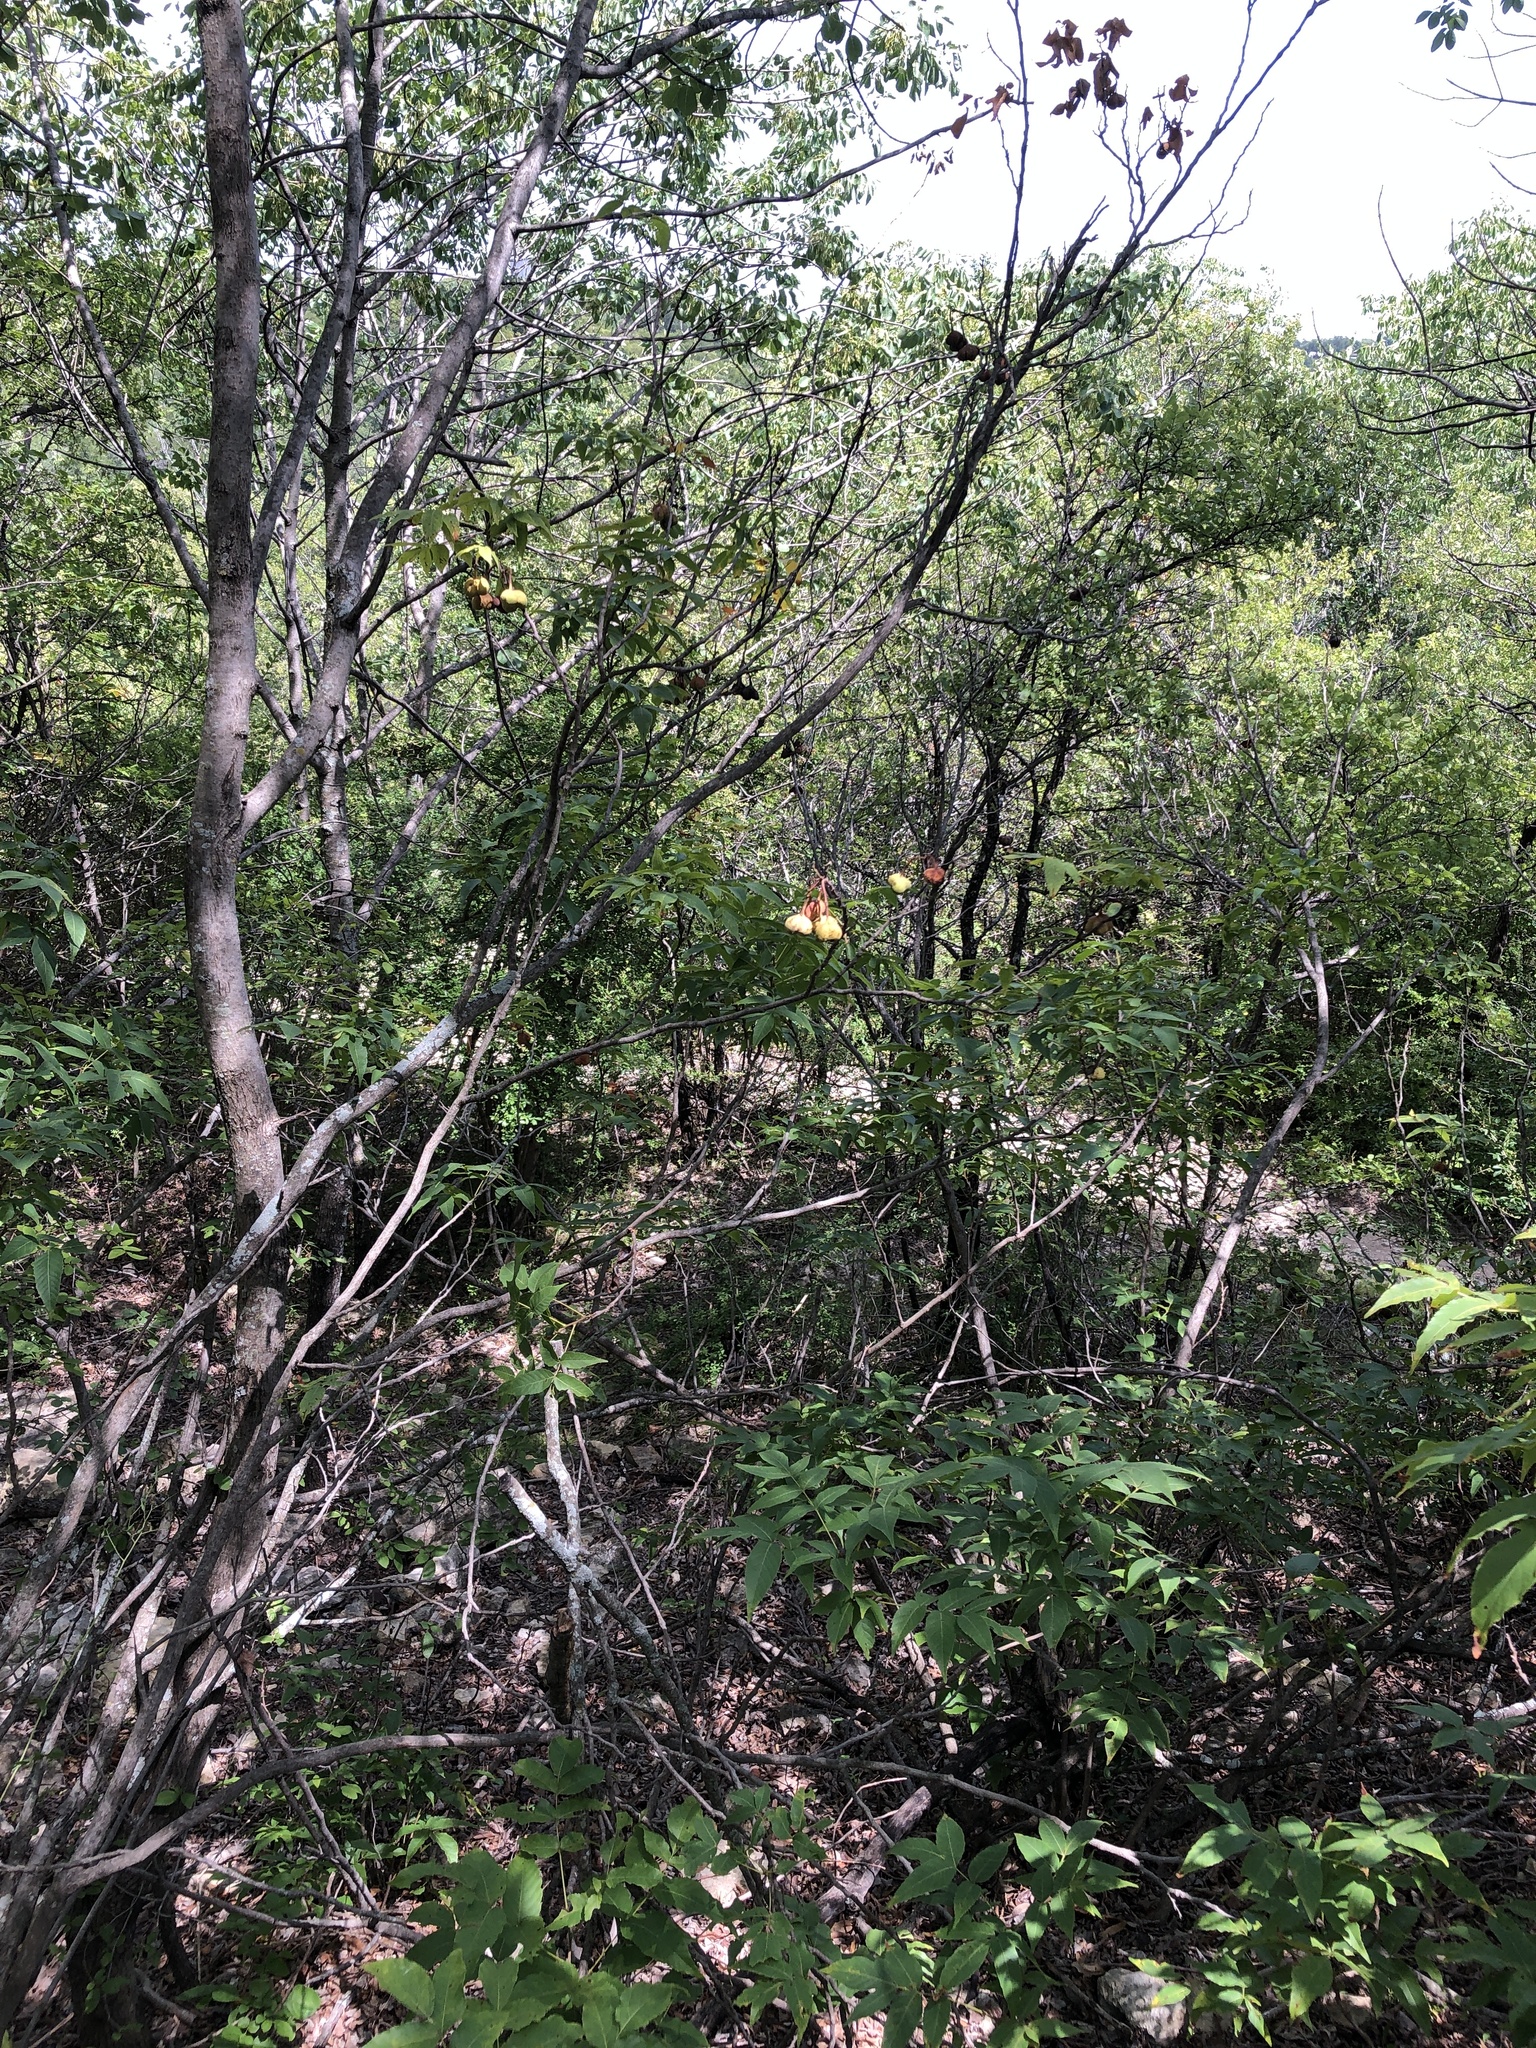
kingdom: Plantae
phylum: Tracheophyta
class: Magnoliopsida
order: Sapindales
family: Sapindaceae
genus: Ungnadia
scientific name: Ungnadia speciosa
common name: Texas-buckeye
